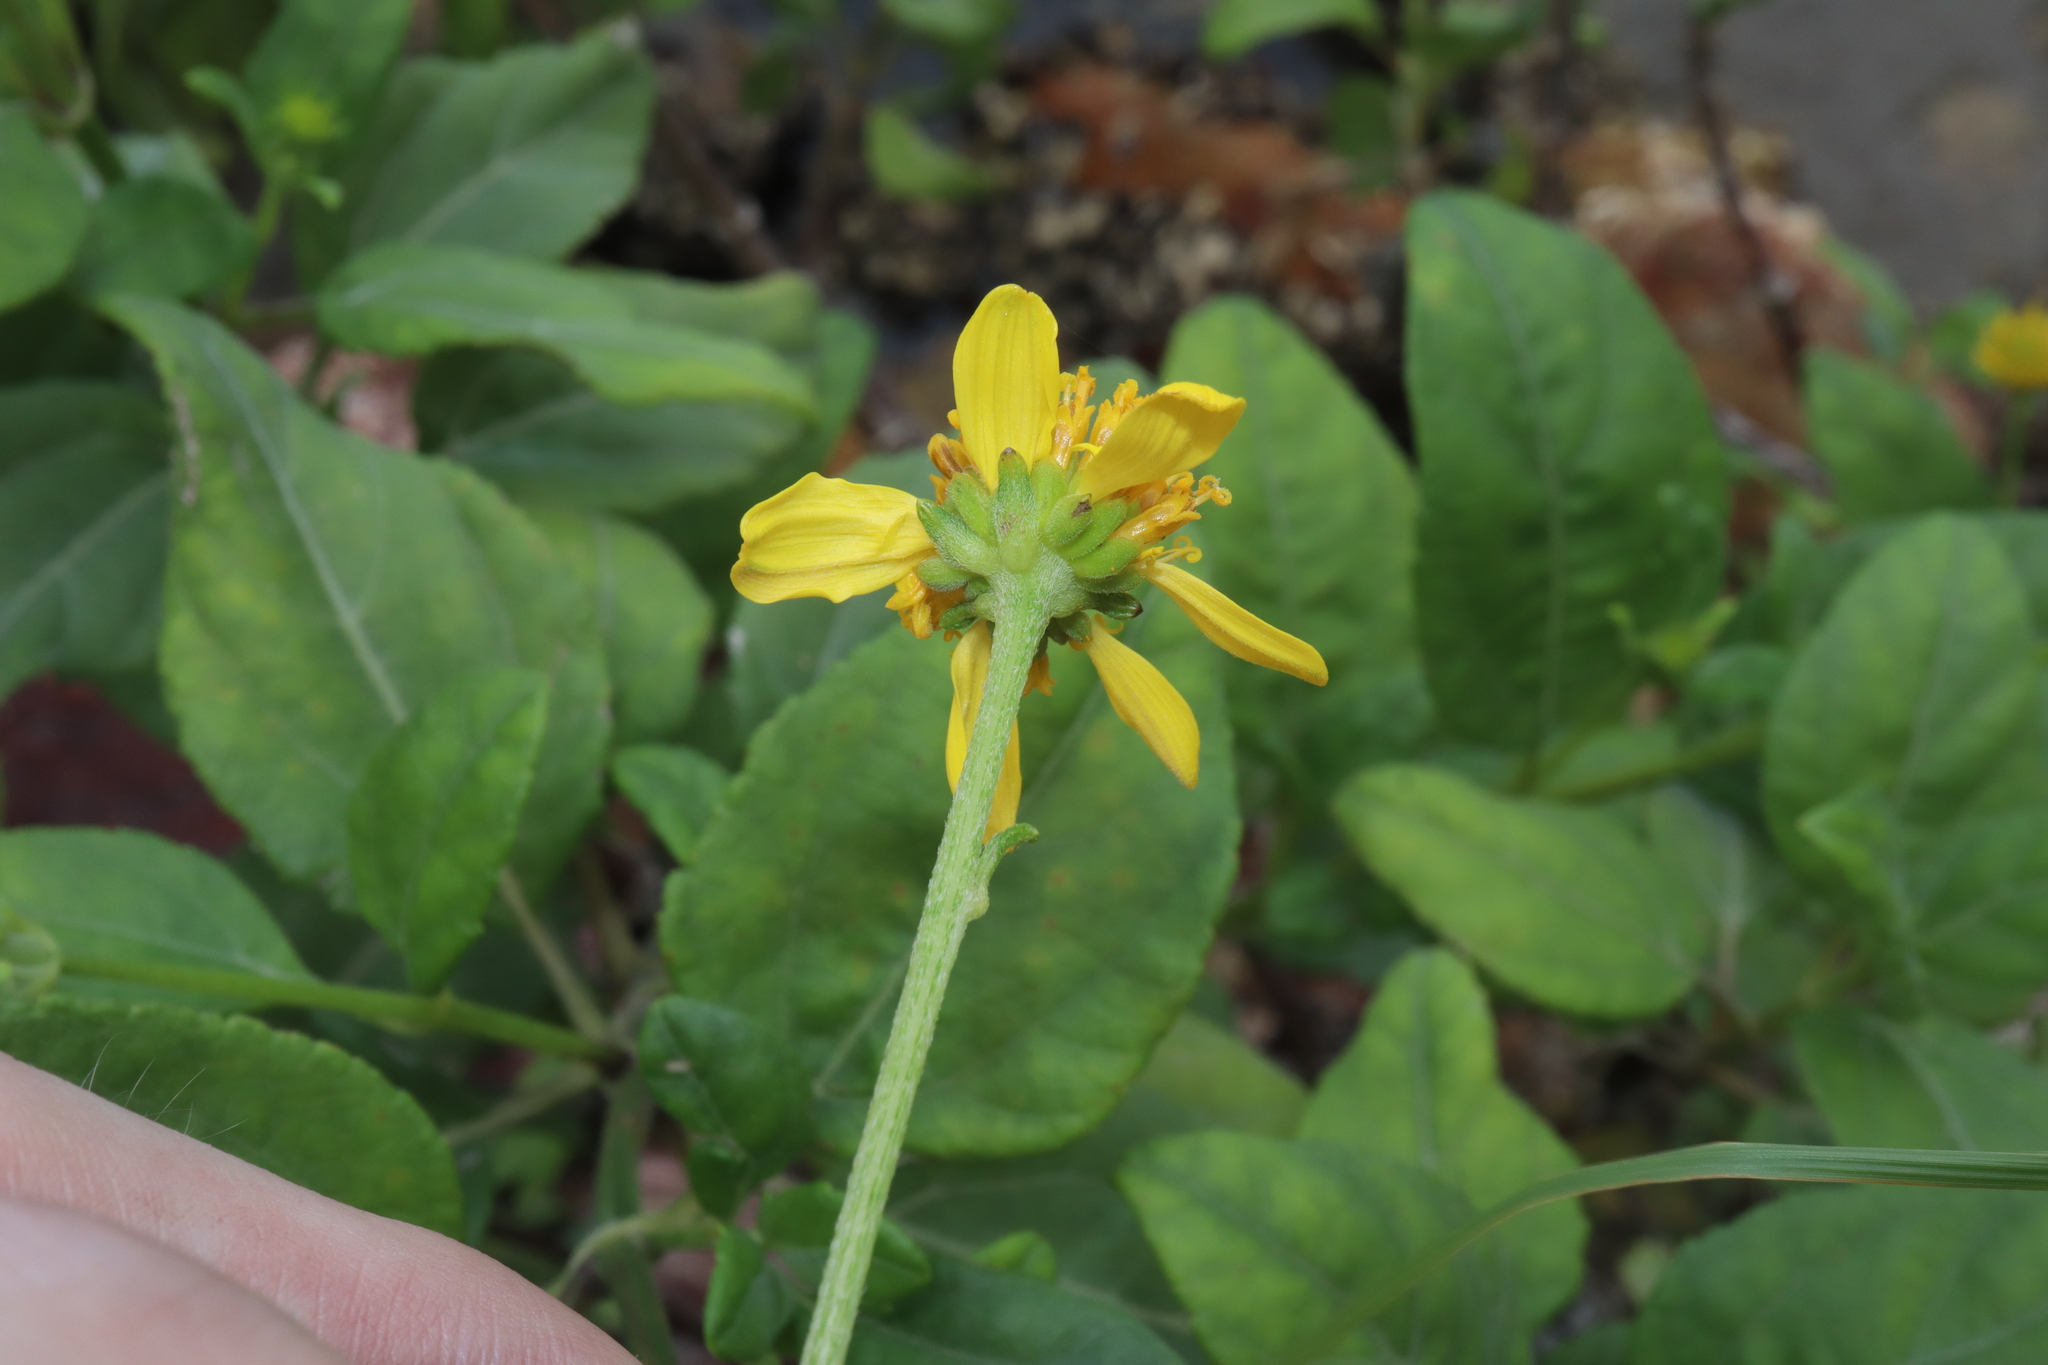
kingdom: Plantae
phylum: Tracheophyta
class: Magnoliopsida
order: Asterales
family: Asteraceae
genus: Wollastonia
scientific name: Wollastonia uniflora
